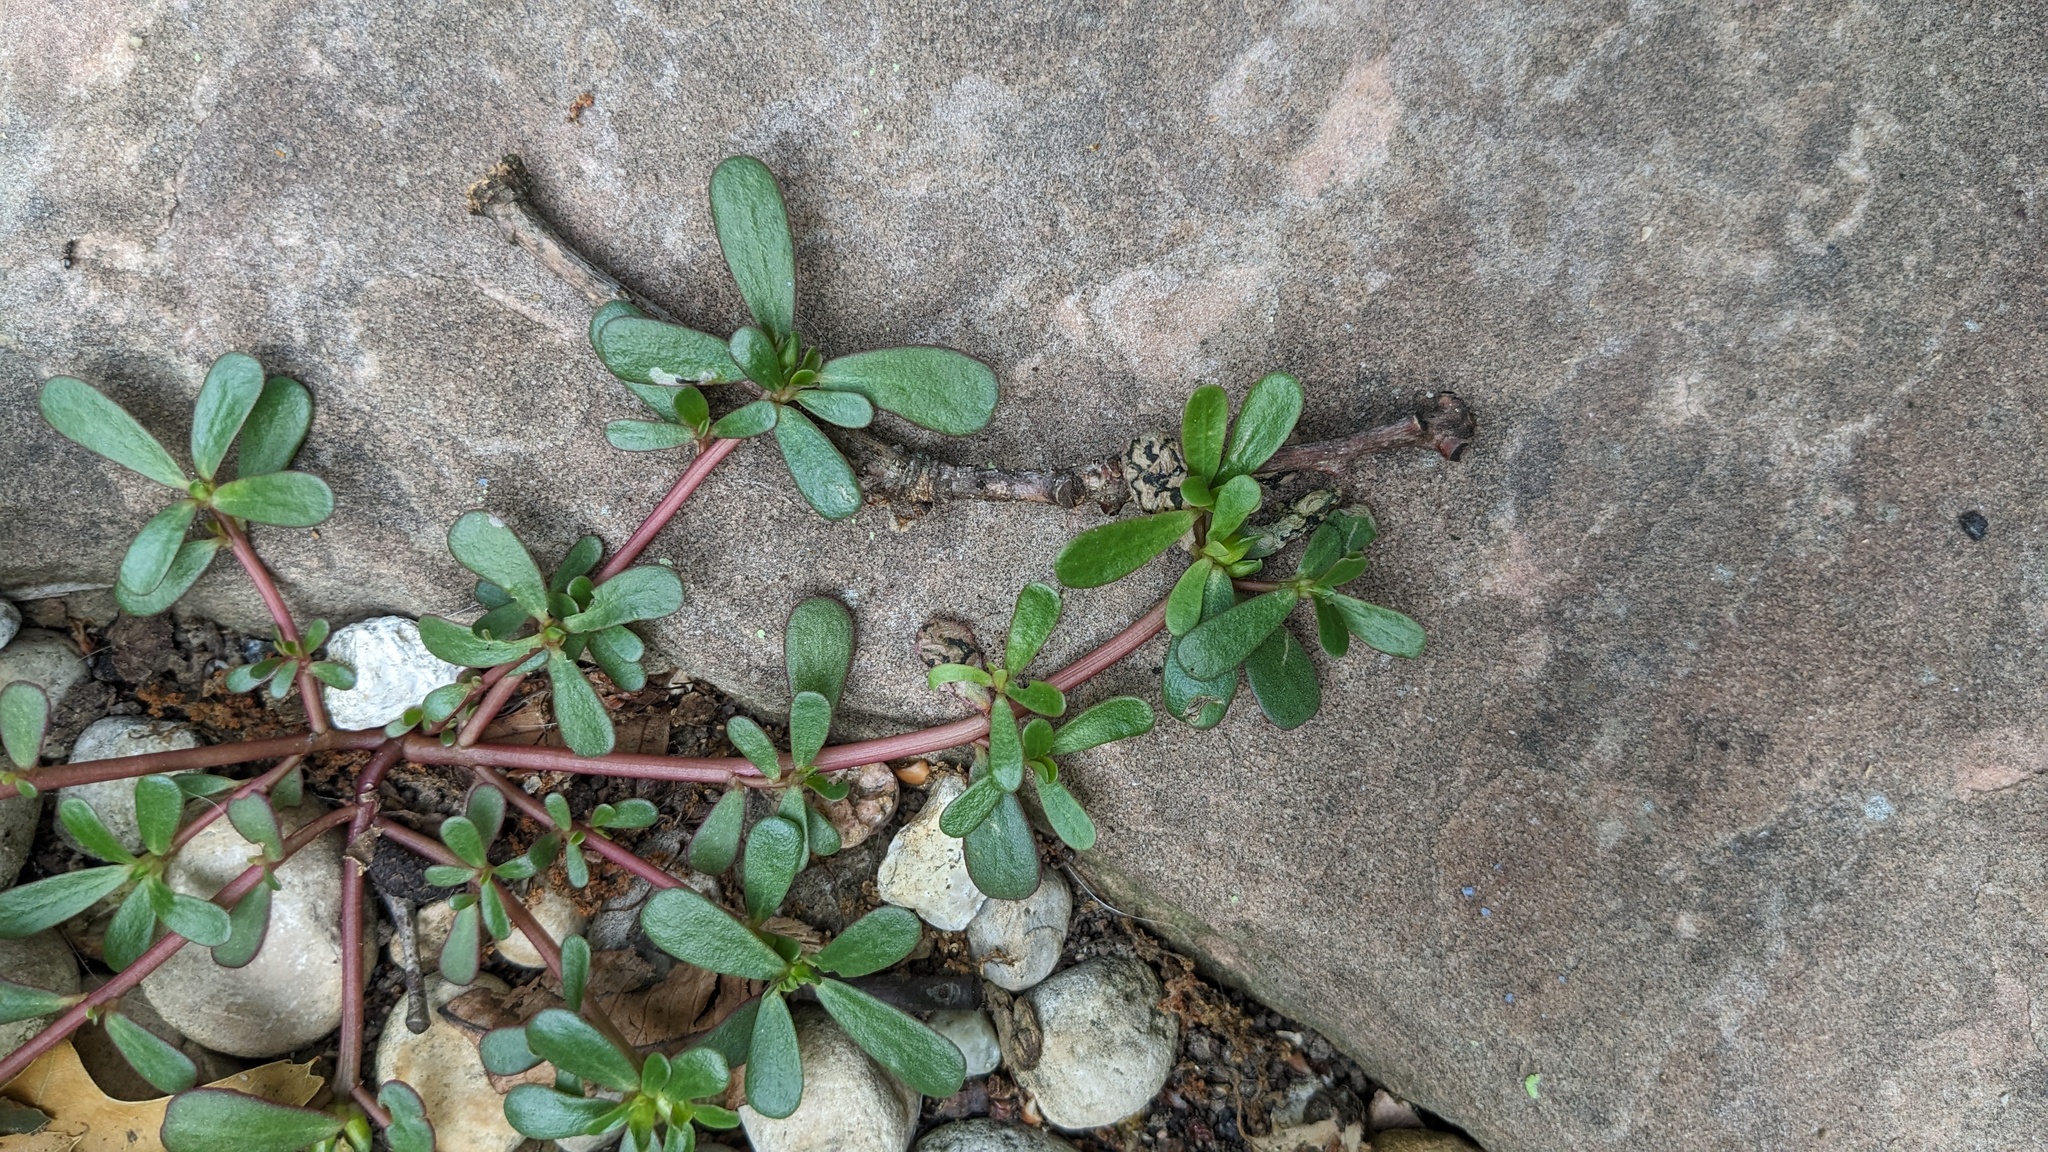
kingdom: Plantae
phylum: Tracheophyta
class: Magnoliopsida
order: Caryophyllales
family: Portulacaceae
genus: Portulaca
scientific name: Portulaca oleracea
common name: Common purslane
